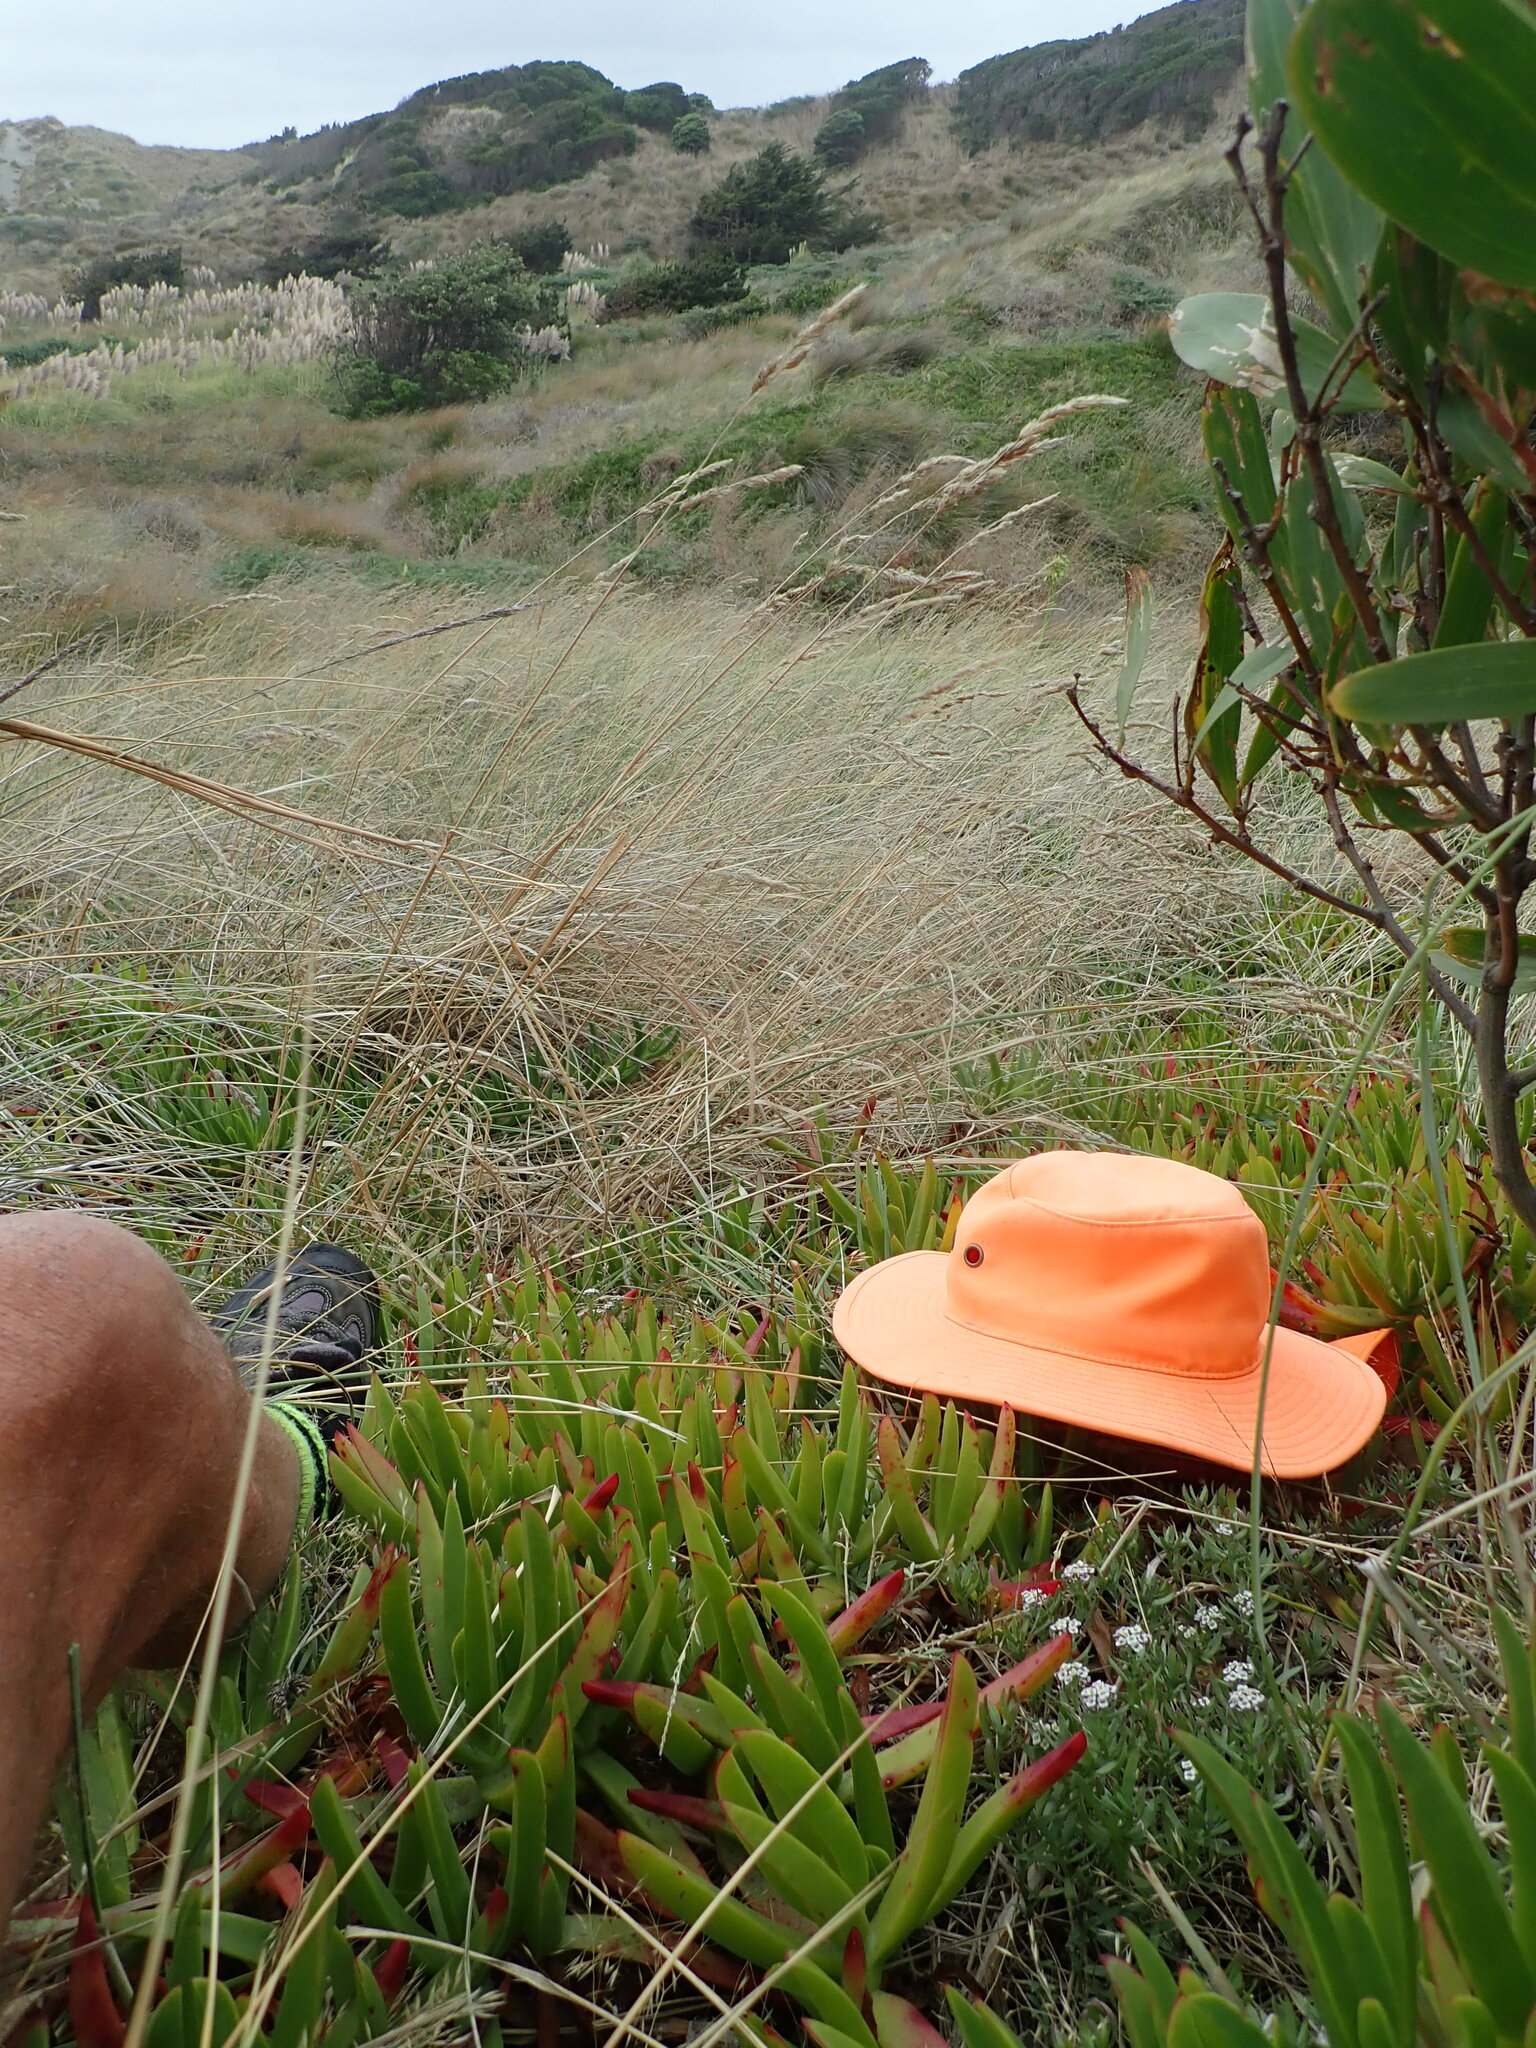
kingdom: Plantae
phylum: Tracheophyta
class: Magnoliopsida
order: Brassicales
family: Brassicaceae
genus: Lobularia
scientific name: Lobularia maritima
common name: Sweet alison
